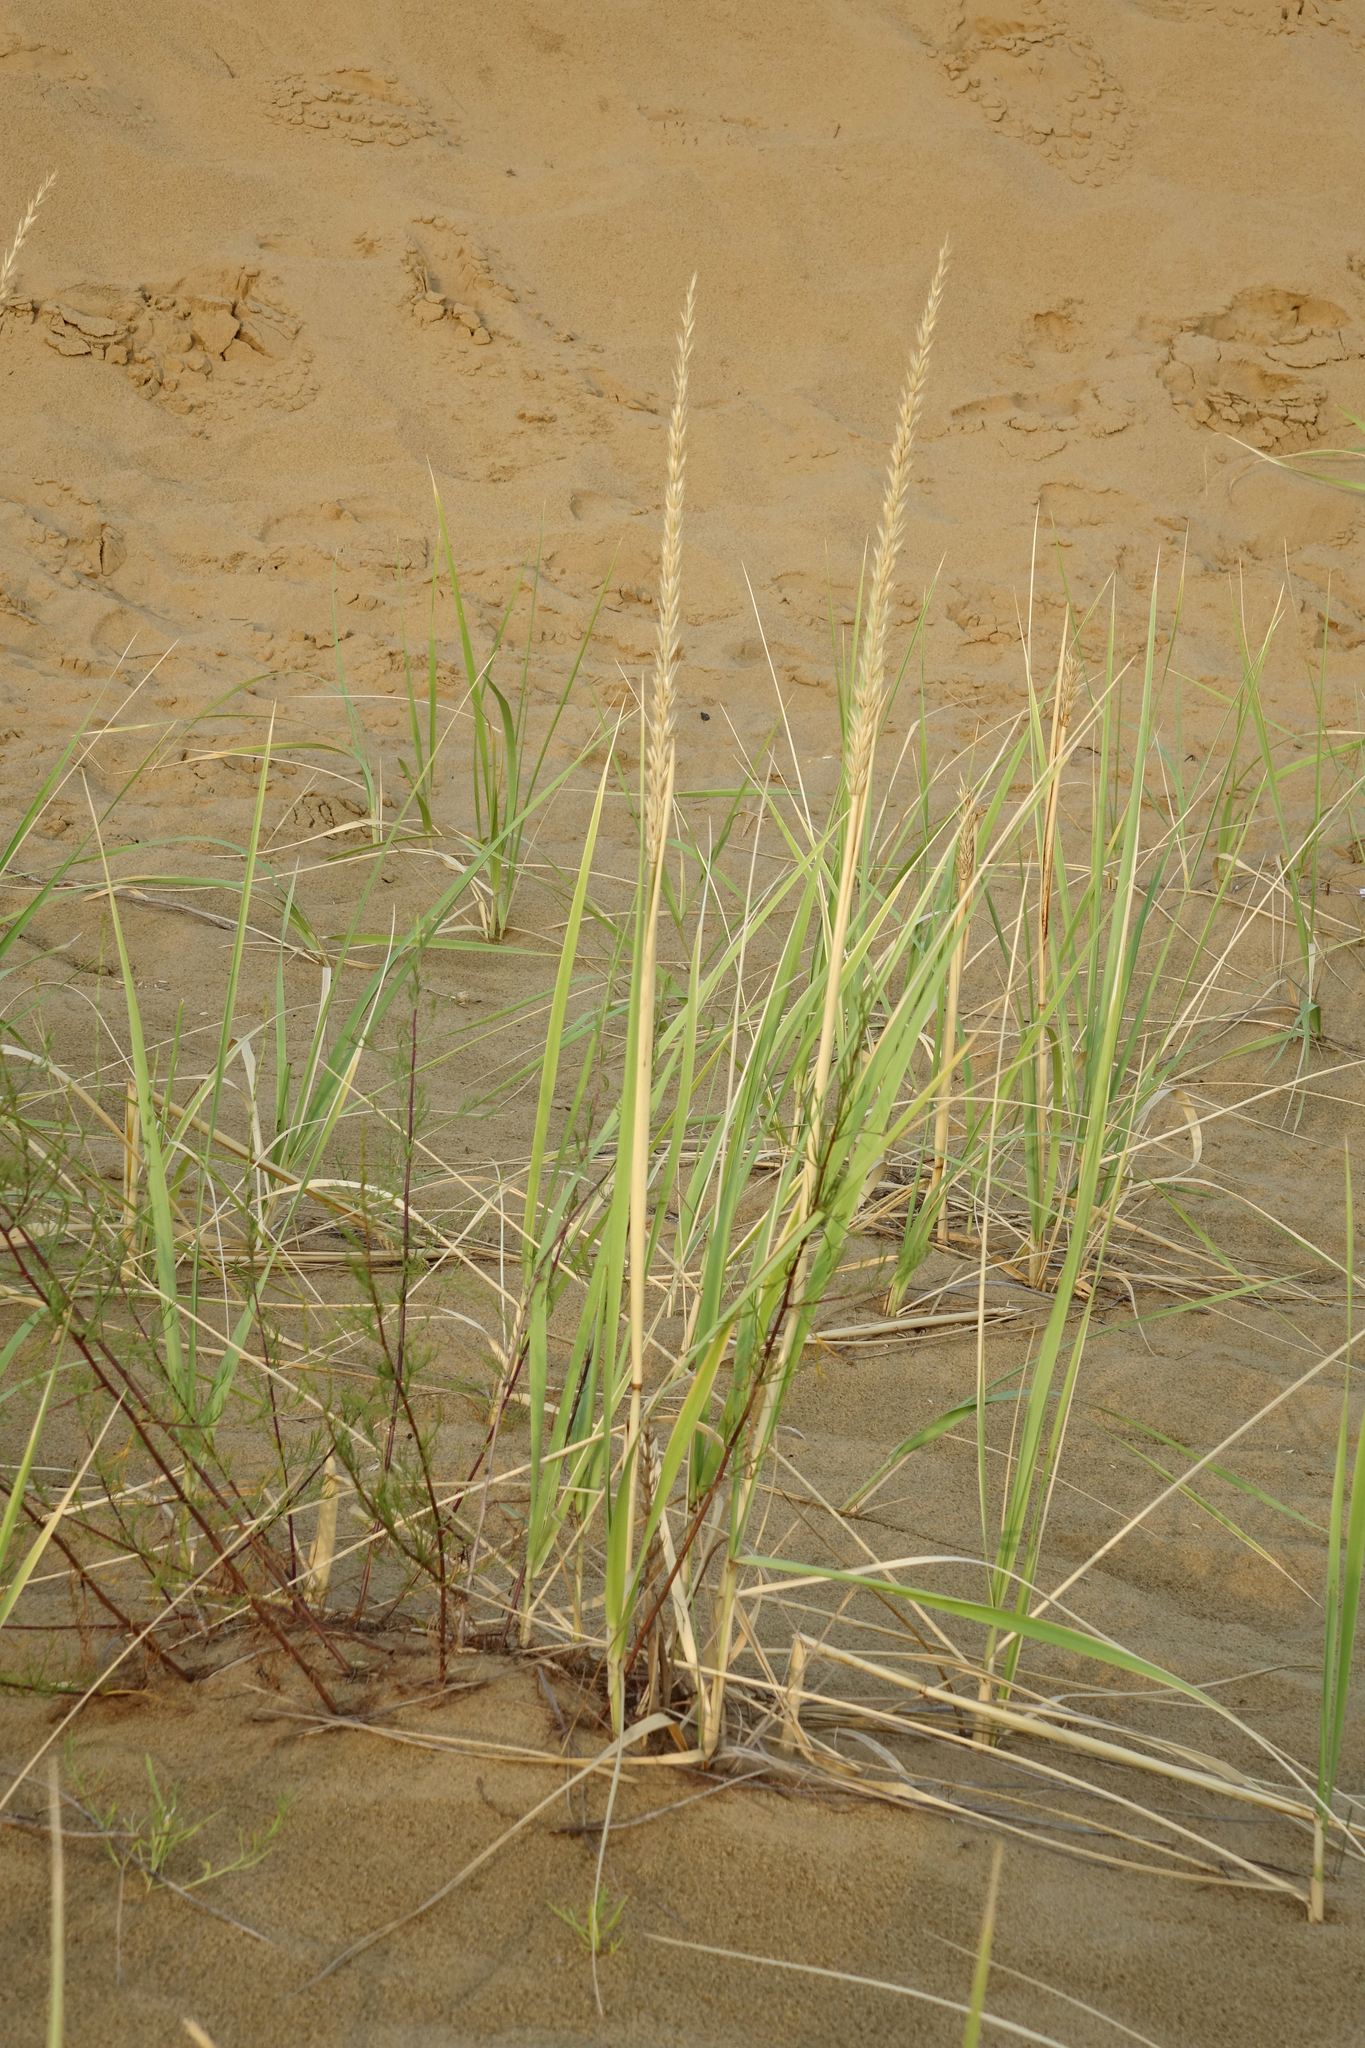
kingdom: Plantae
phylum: Tracheophyta
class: Liliopsida
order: Poales
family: Poaceae
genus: Leymus
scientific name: Leymus racemosus
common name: Mammoth wildrye
